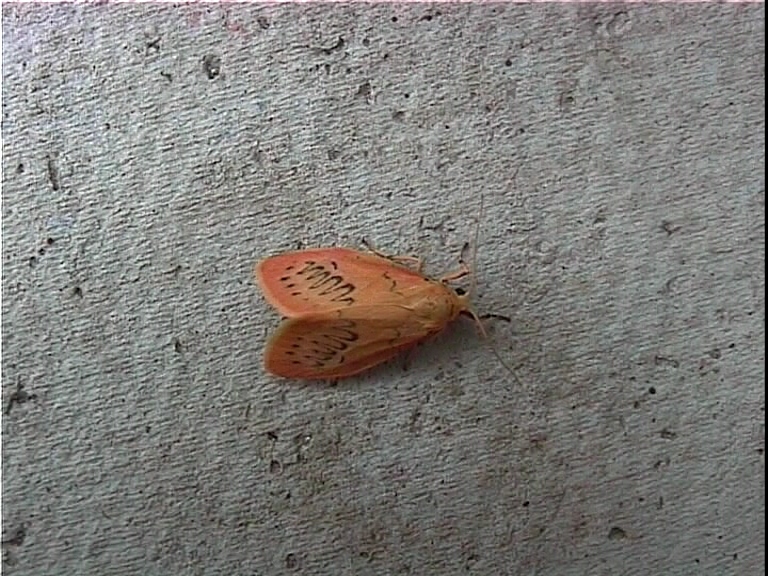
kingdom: Animalia
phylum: Arthropoda
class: Insecta
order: Lepidoptera
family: Erebidae
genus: Miltochrista
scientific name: Miltochrista miniata
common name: Rosy footman
